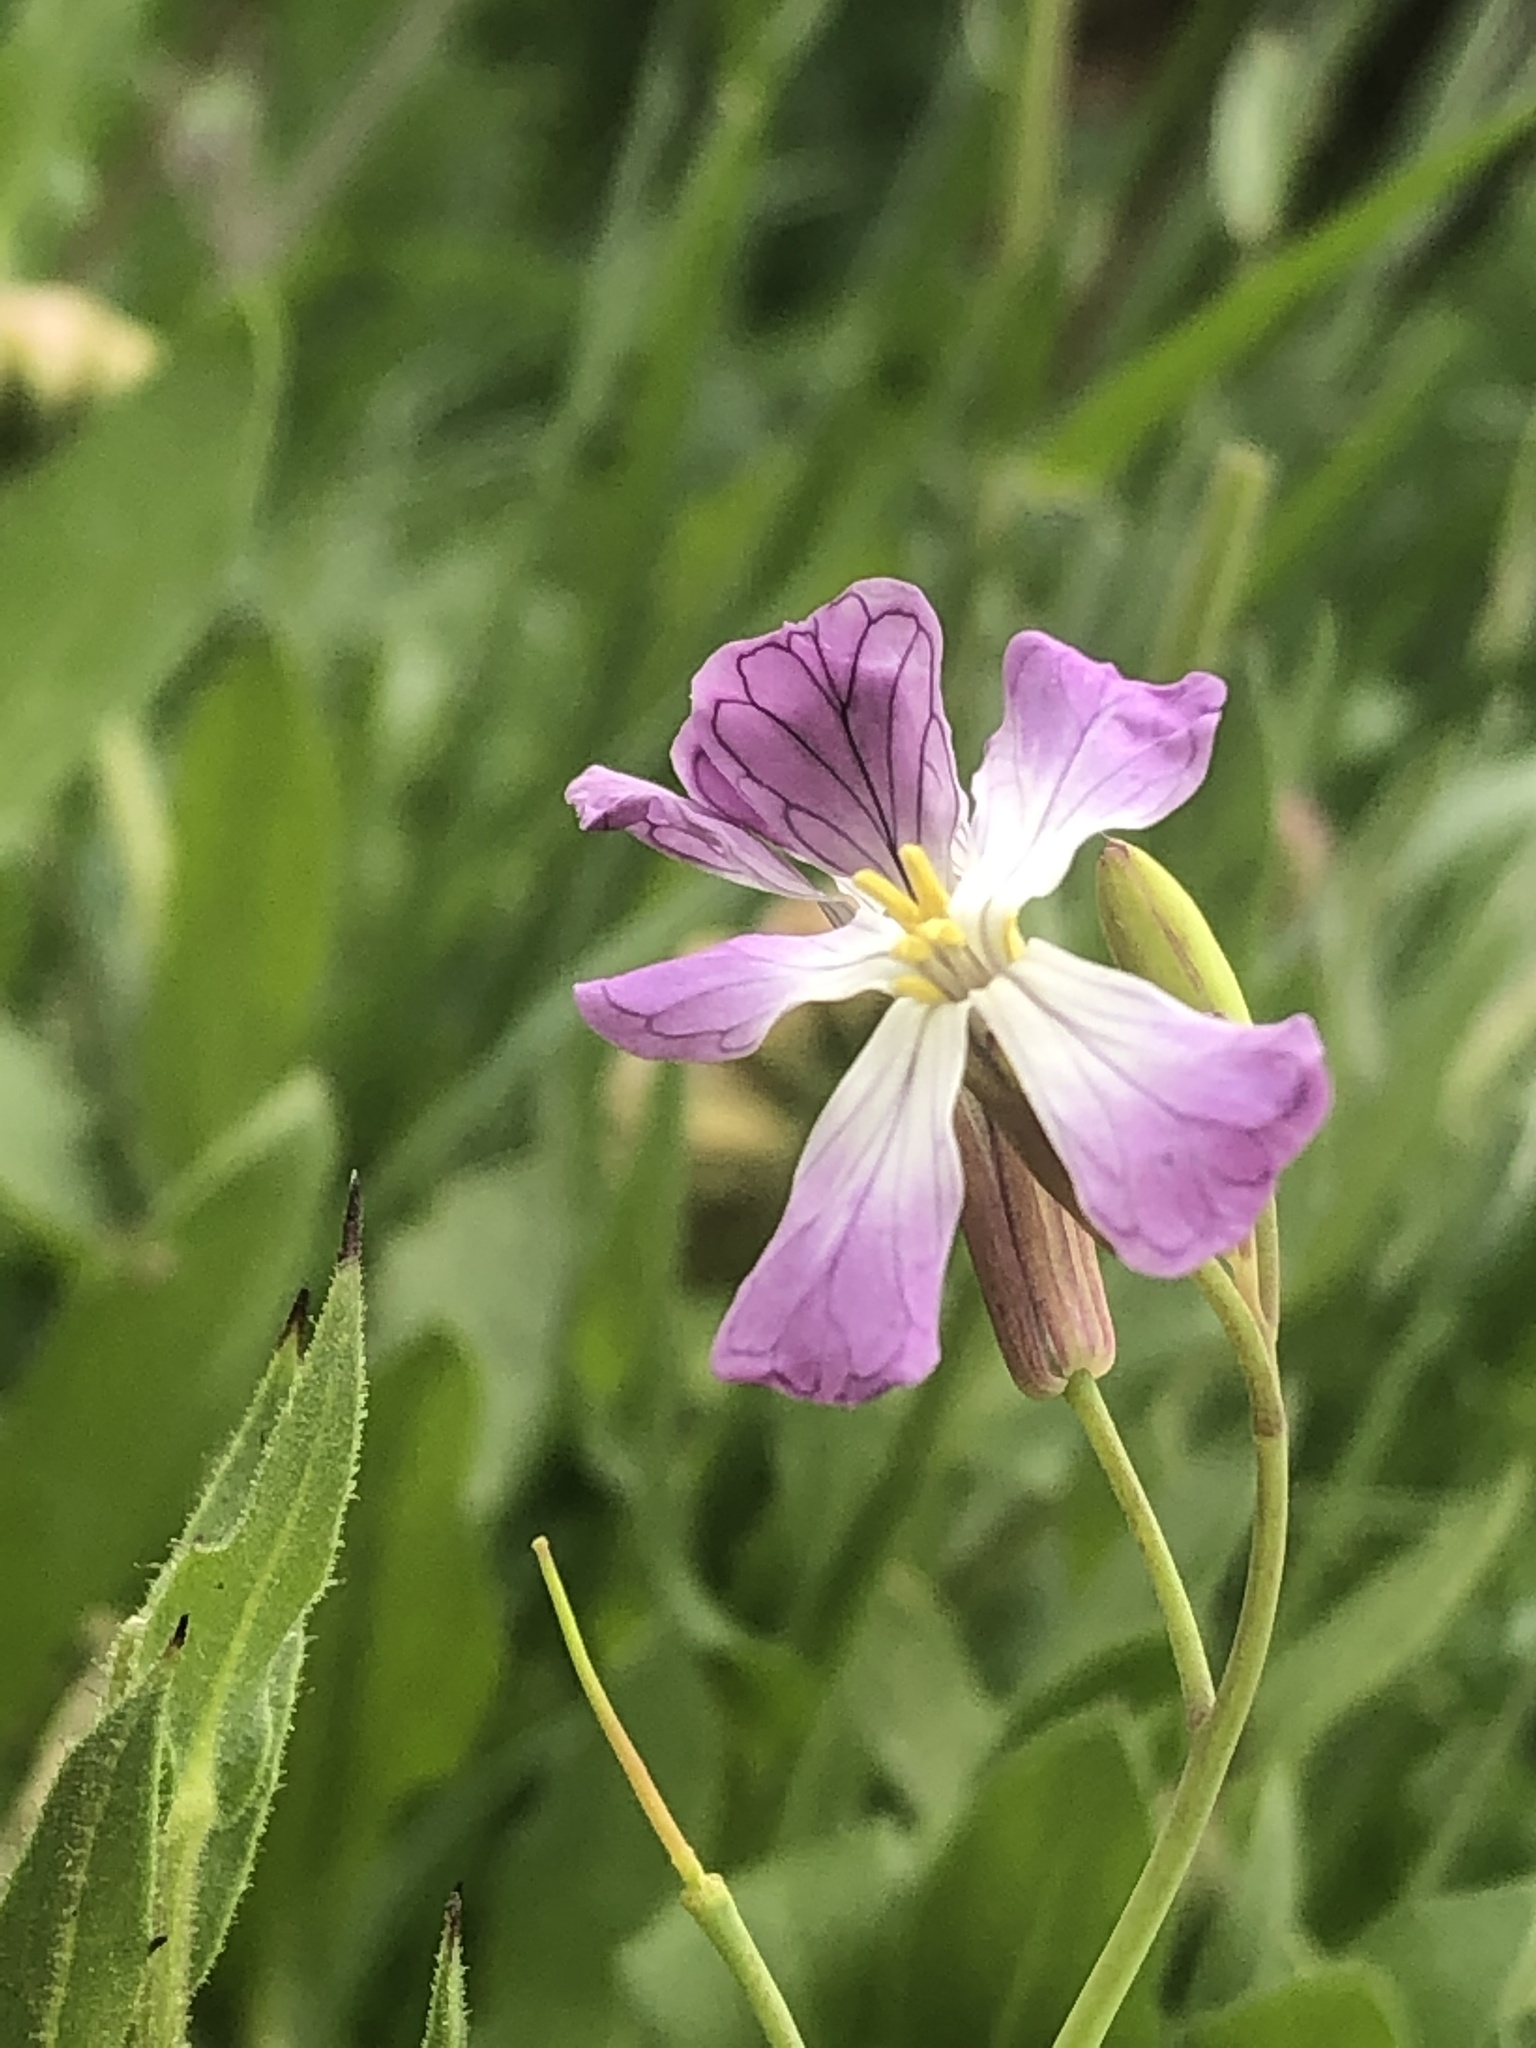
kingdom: Plantae
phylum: Tracheophyta
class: Magnoliopsida
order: Brassicales
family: Brassicaceae
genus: Raphanus
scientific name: Raphanus sativus
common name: Cultivated radish
